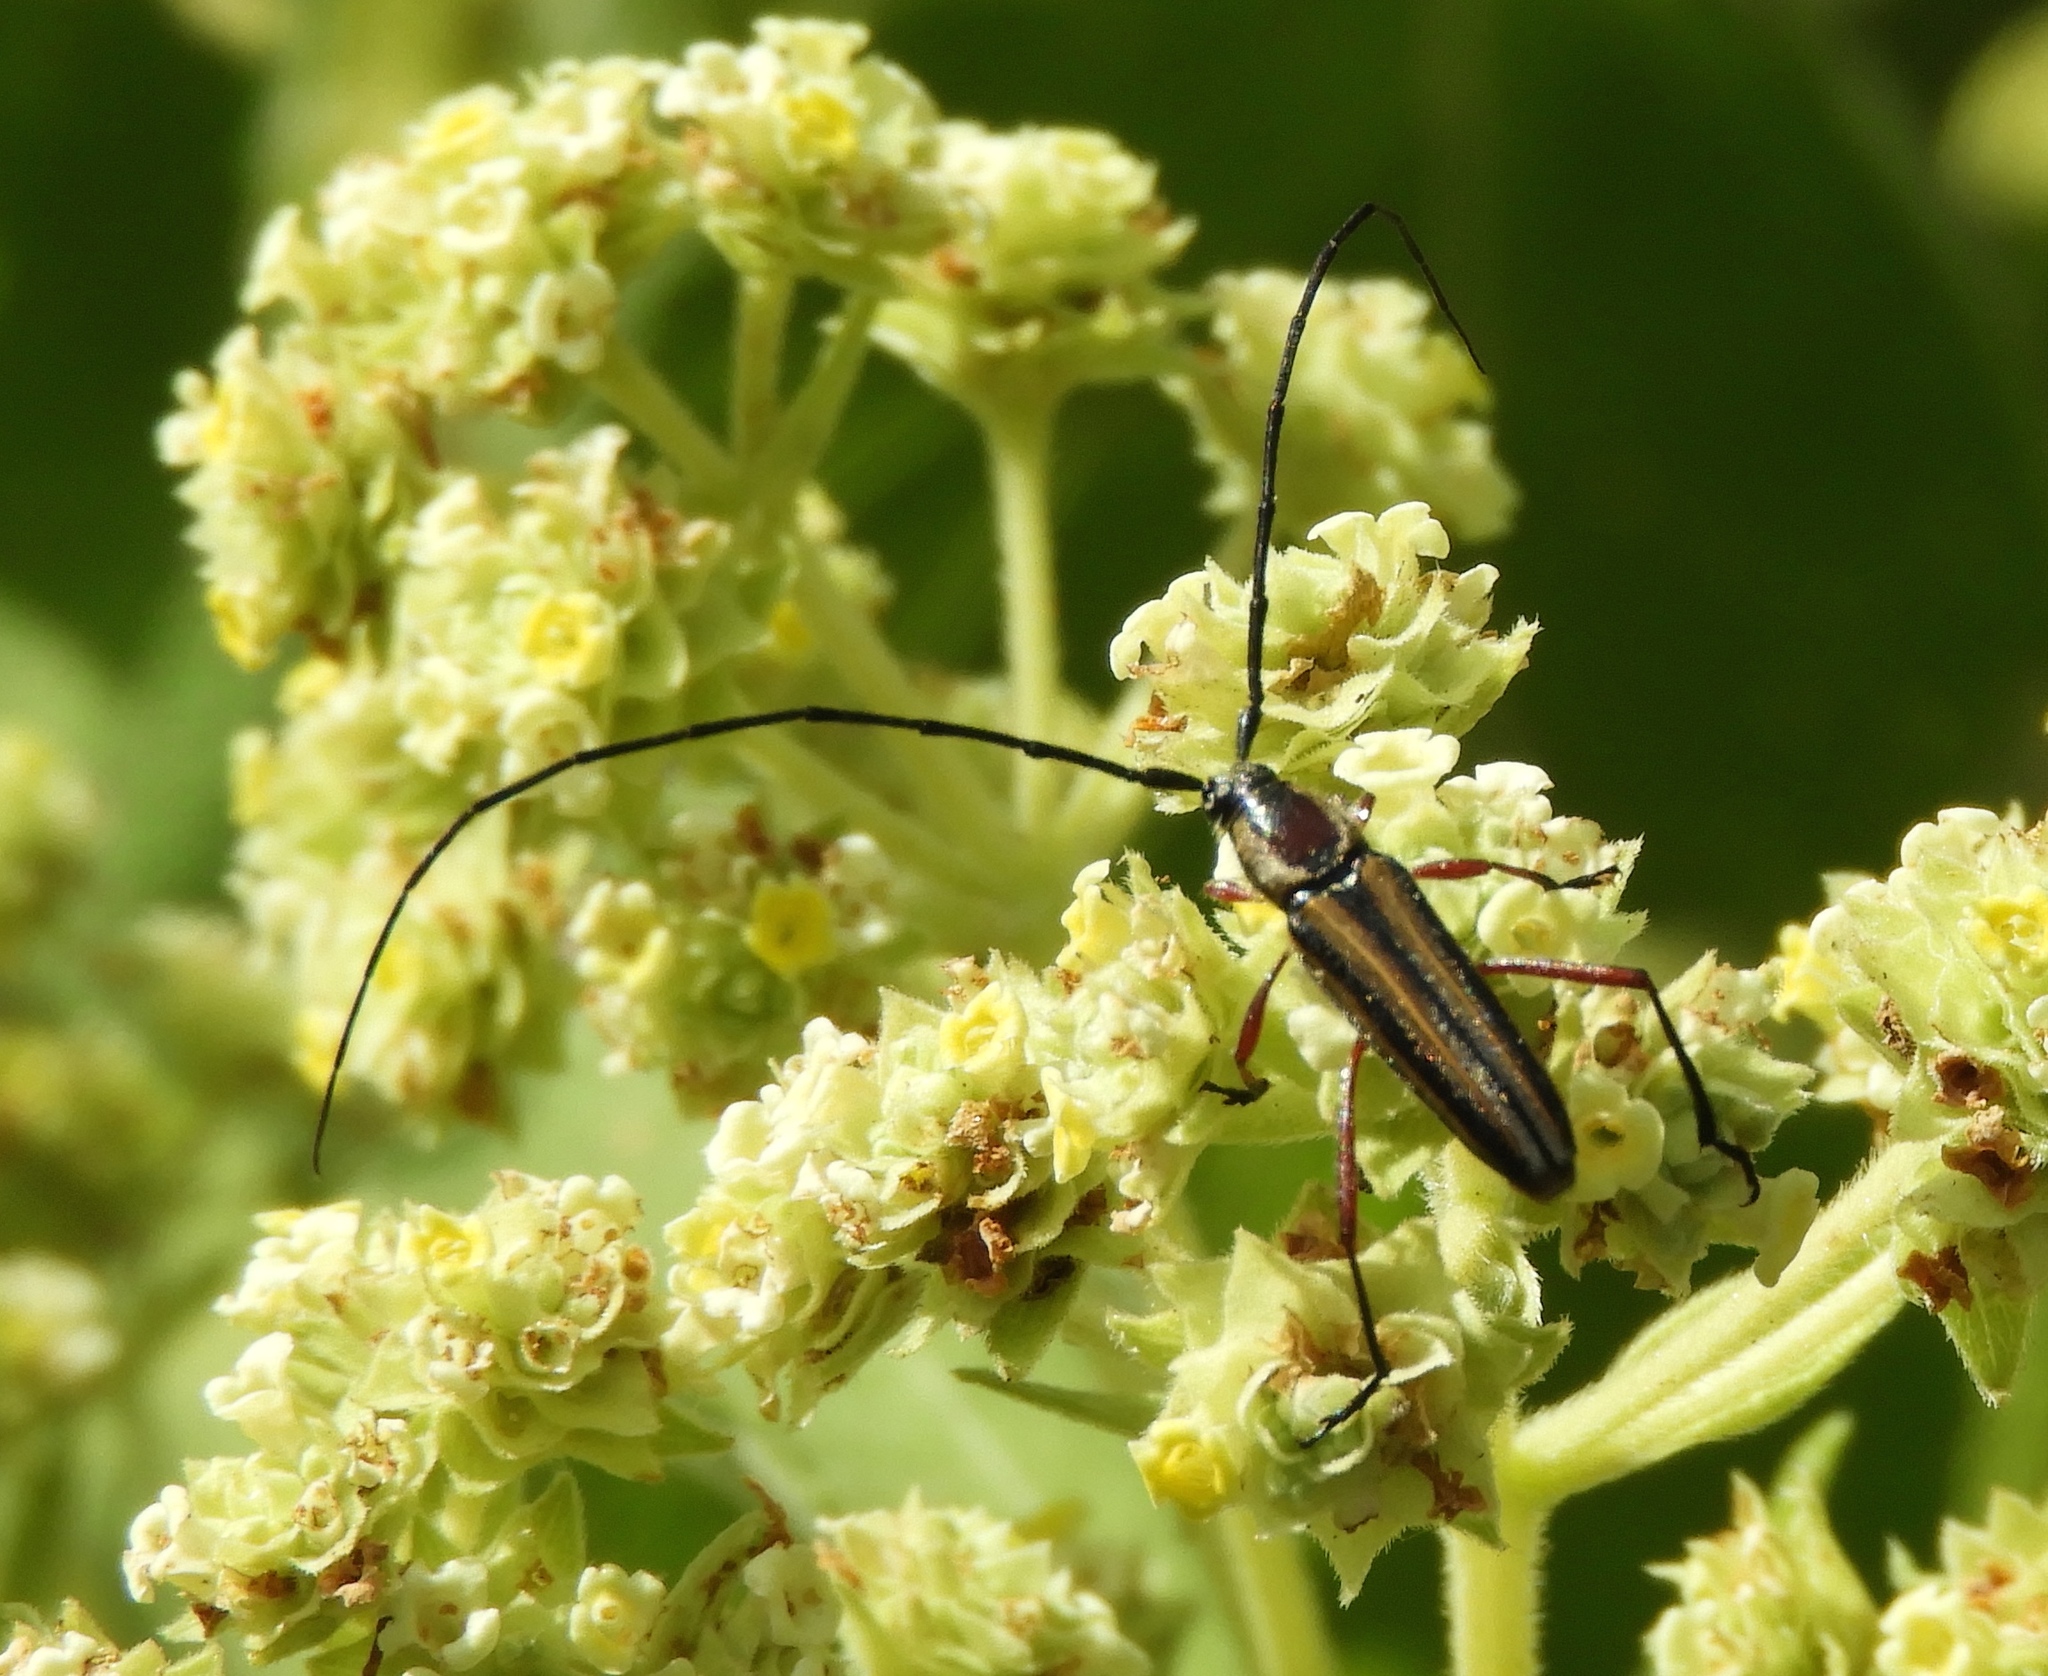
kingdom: Animalia
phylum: Arthropoda
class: Insecta
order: Coleoptera
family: Cerambycidae
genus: Sphaenothecus
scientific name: Sphaenothecus maccartyi
